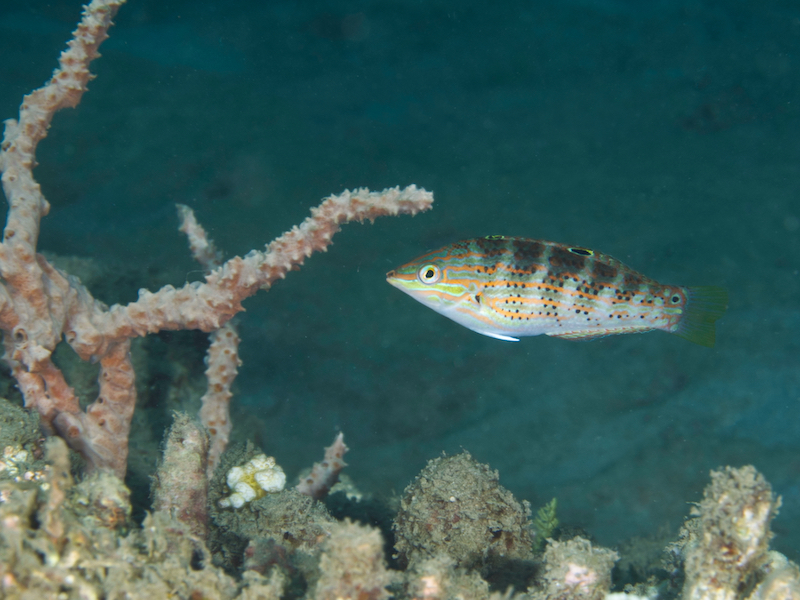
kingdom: Animalia
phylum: Chordata
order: Perciformes
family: Labridae
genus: Halichoeres
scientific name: Halichoeres binotopsis
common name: Saowisata wrasse
